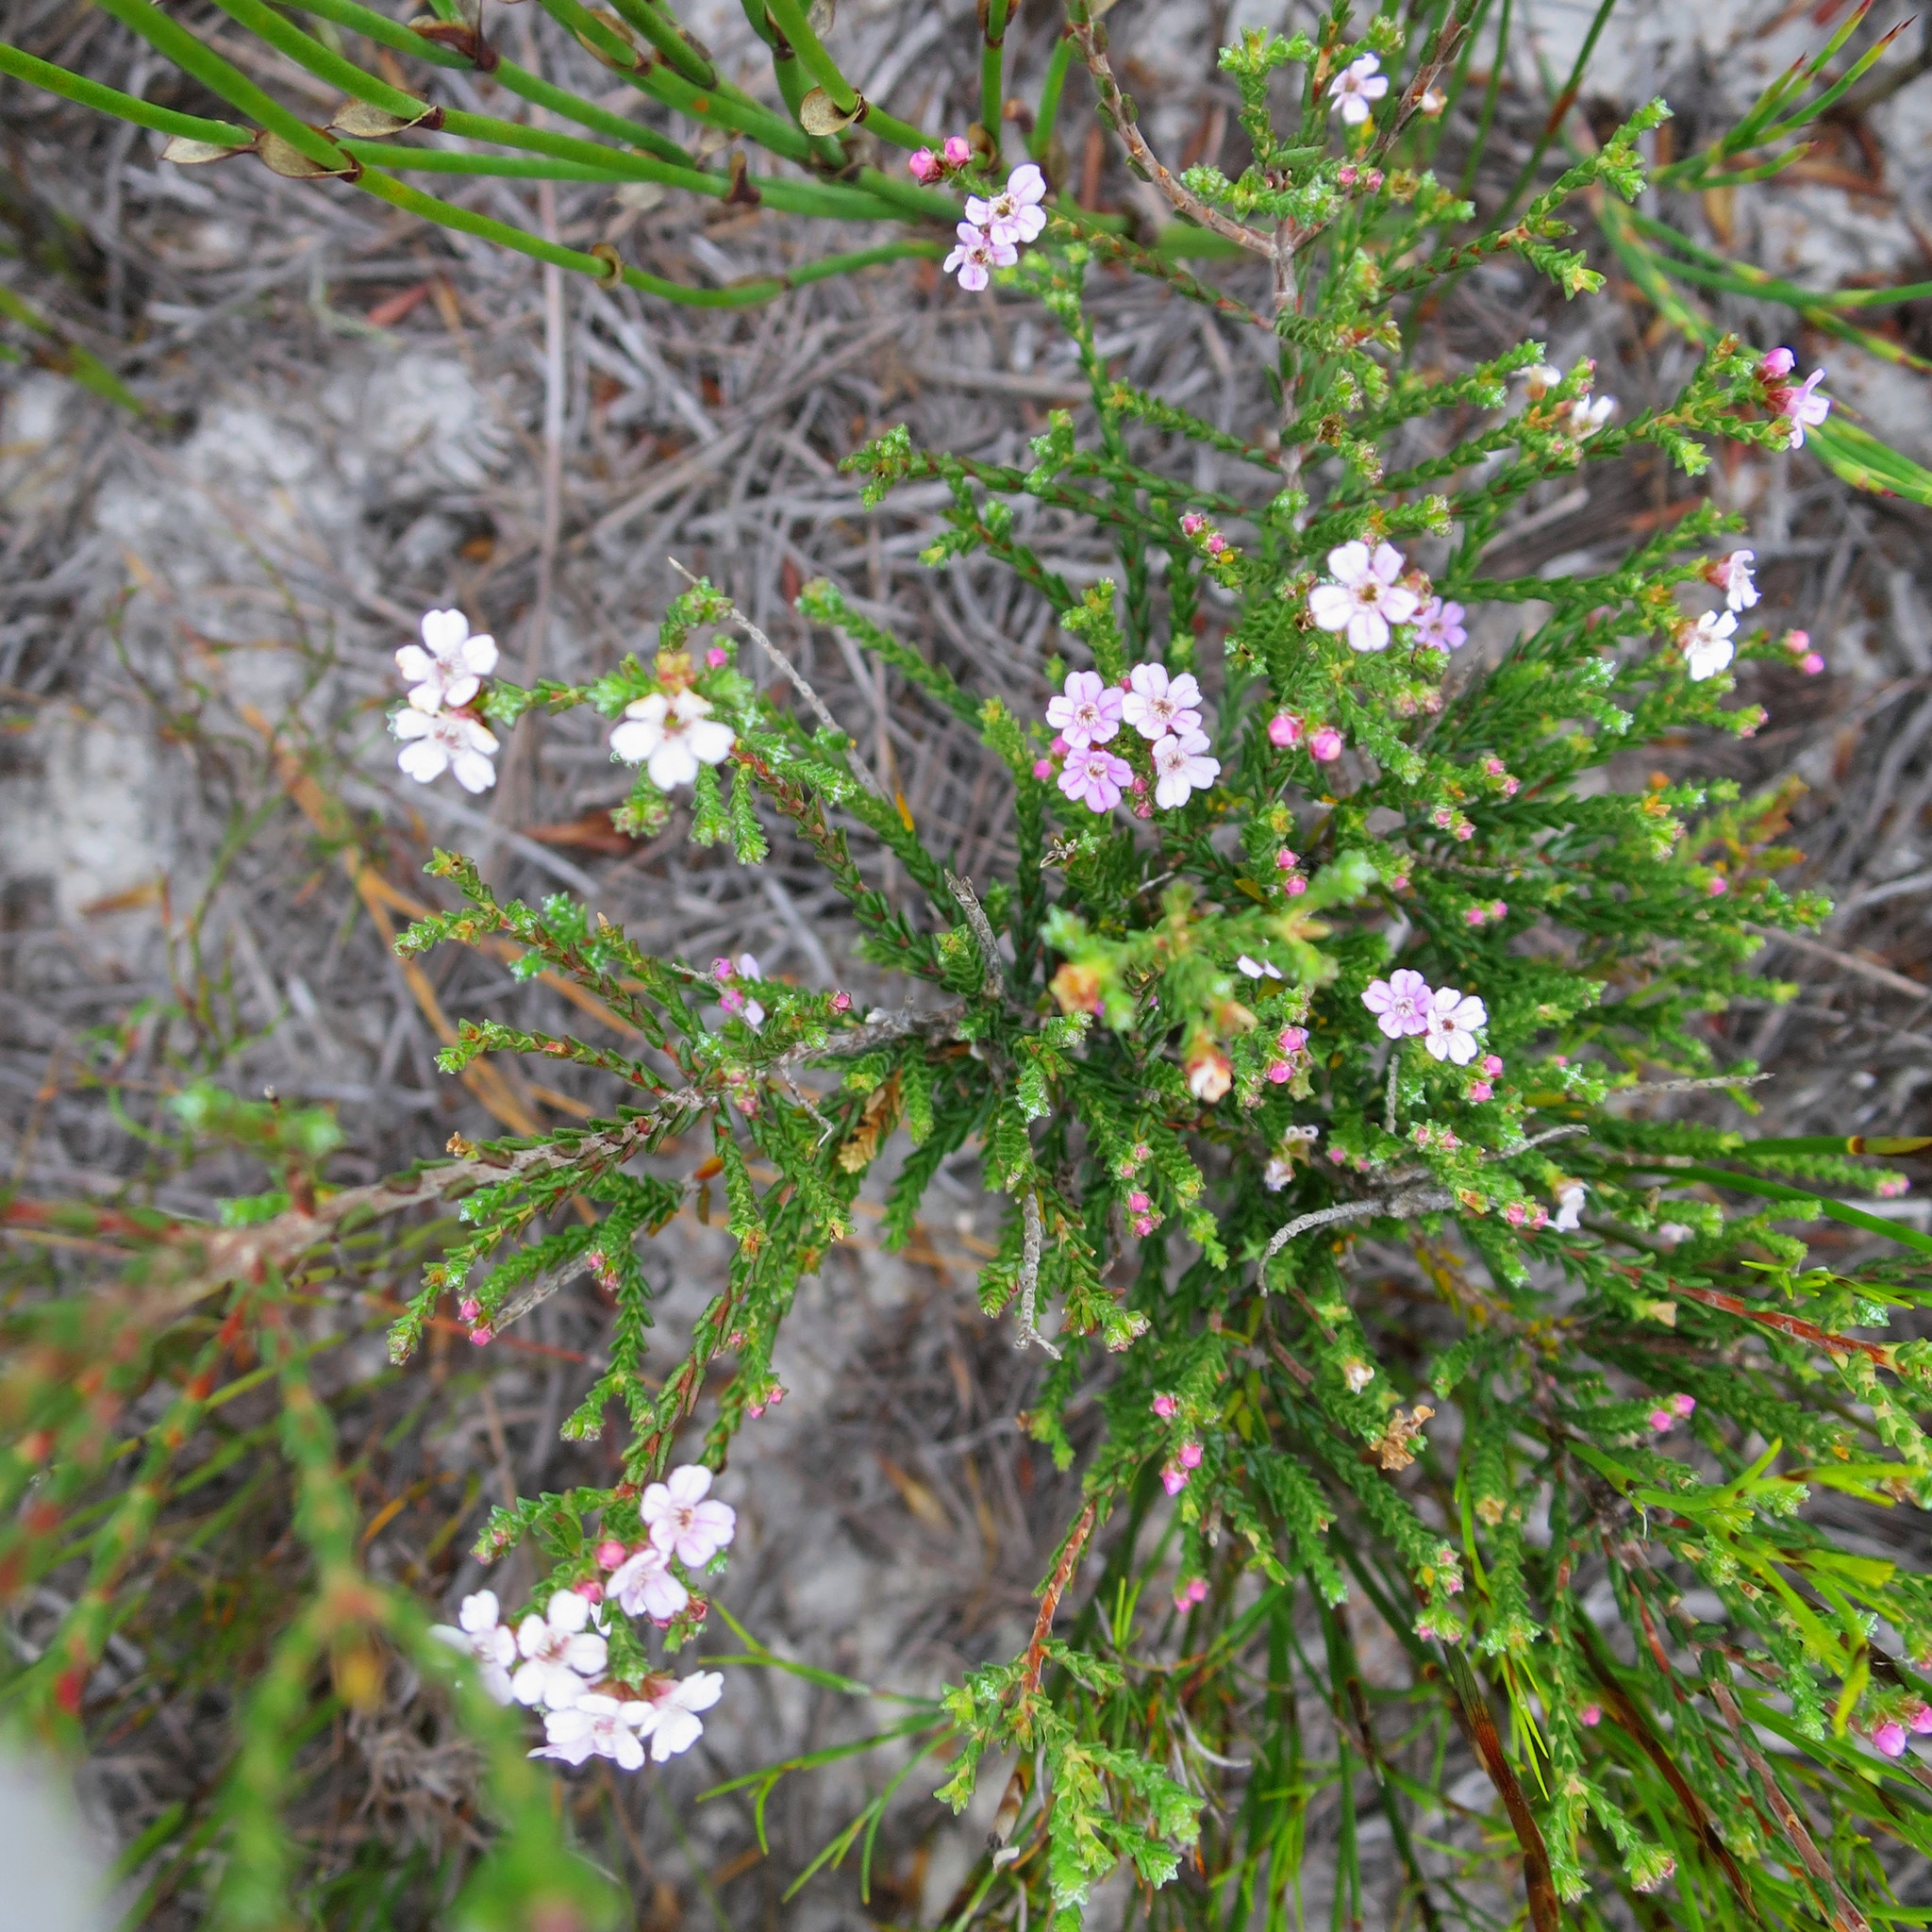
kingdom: Plantae
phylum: Tracheophyta
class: Magnoliopsida
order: Sapindales
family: Rutaceae
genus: Euchaetis
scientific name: Euchaetis albertiniana
